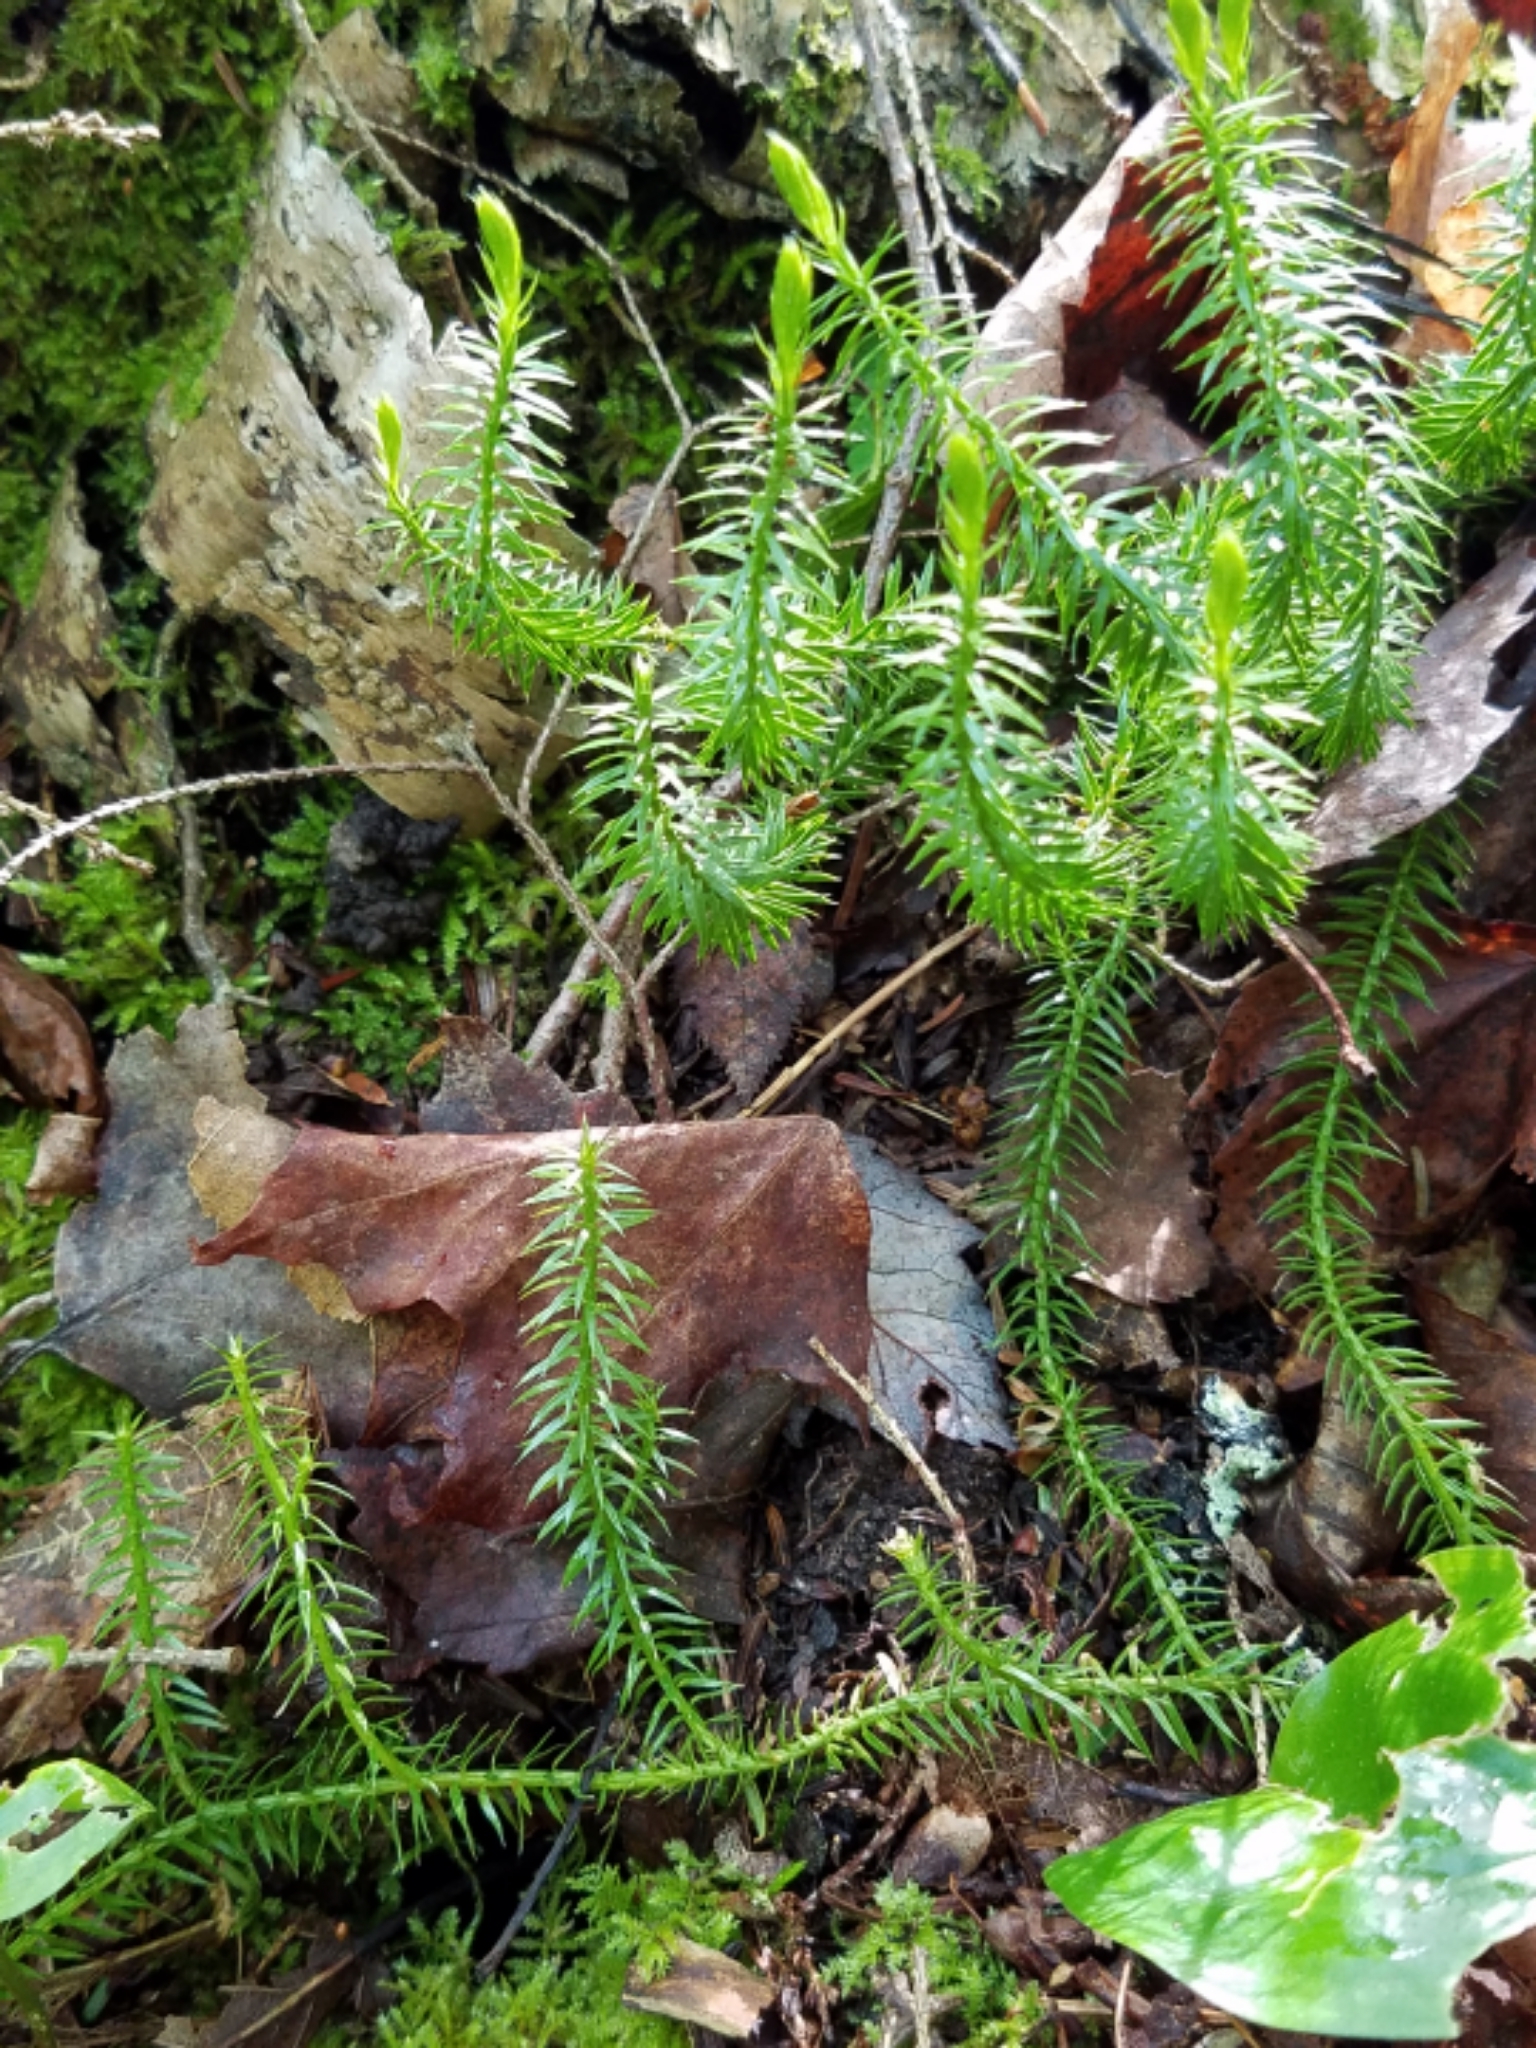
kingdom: Plantae
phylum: Tracheophyta
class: Lycopodiopsida
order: Lycopodiales
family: Lycopodiaceae
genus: Spinulum
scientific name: Spinulum annotinum
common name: Interrupted club-moss
